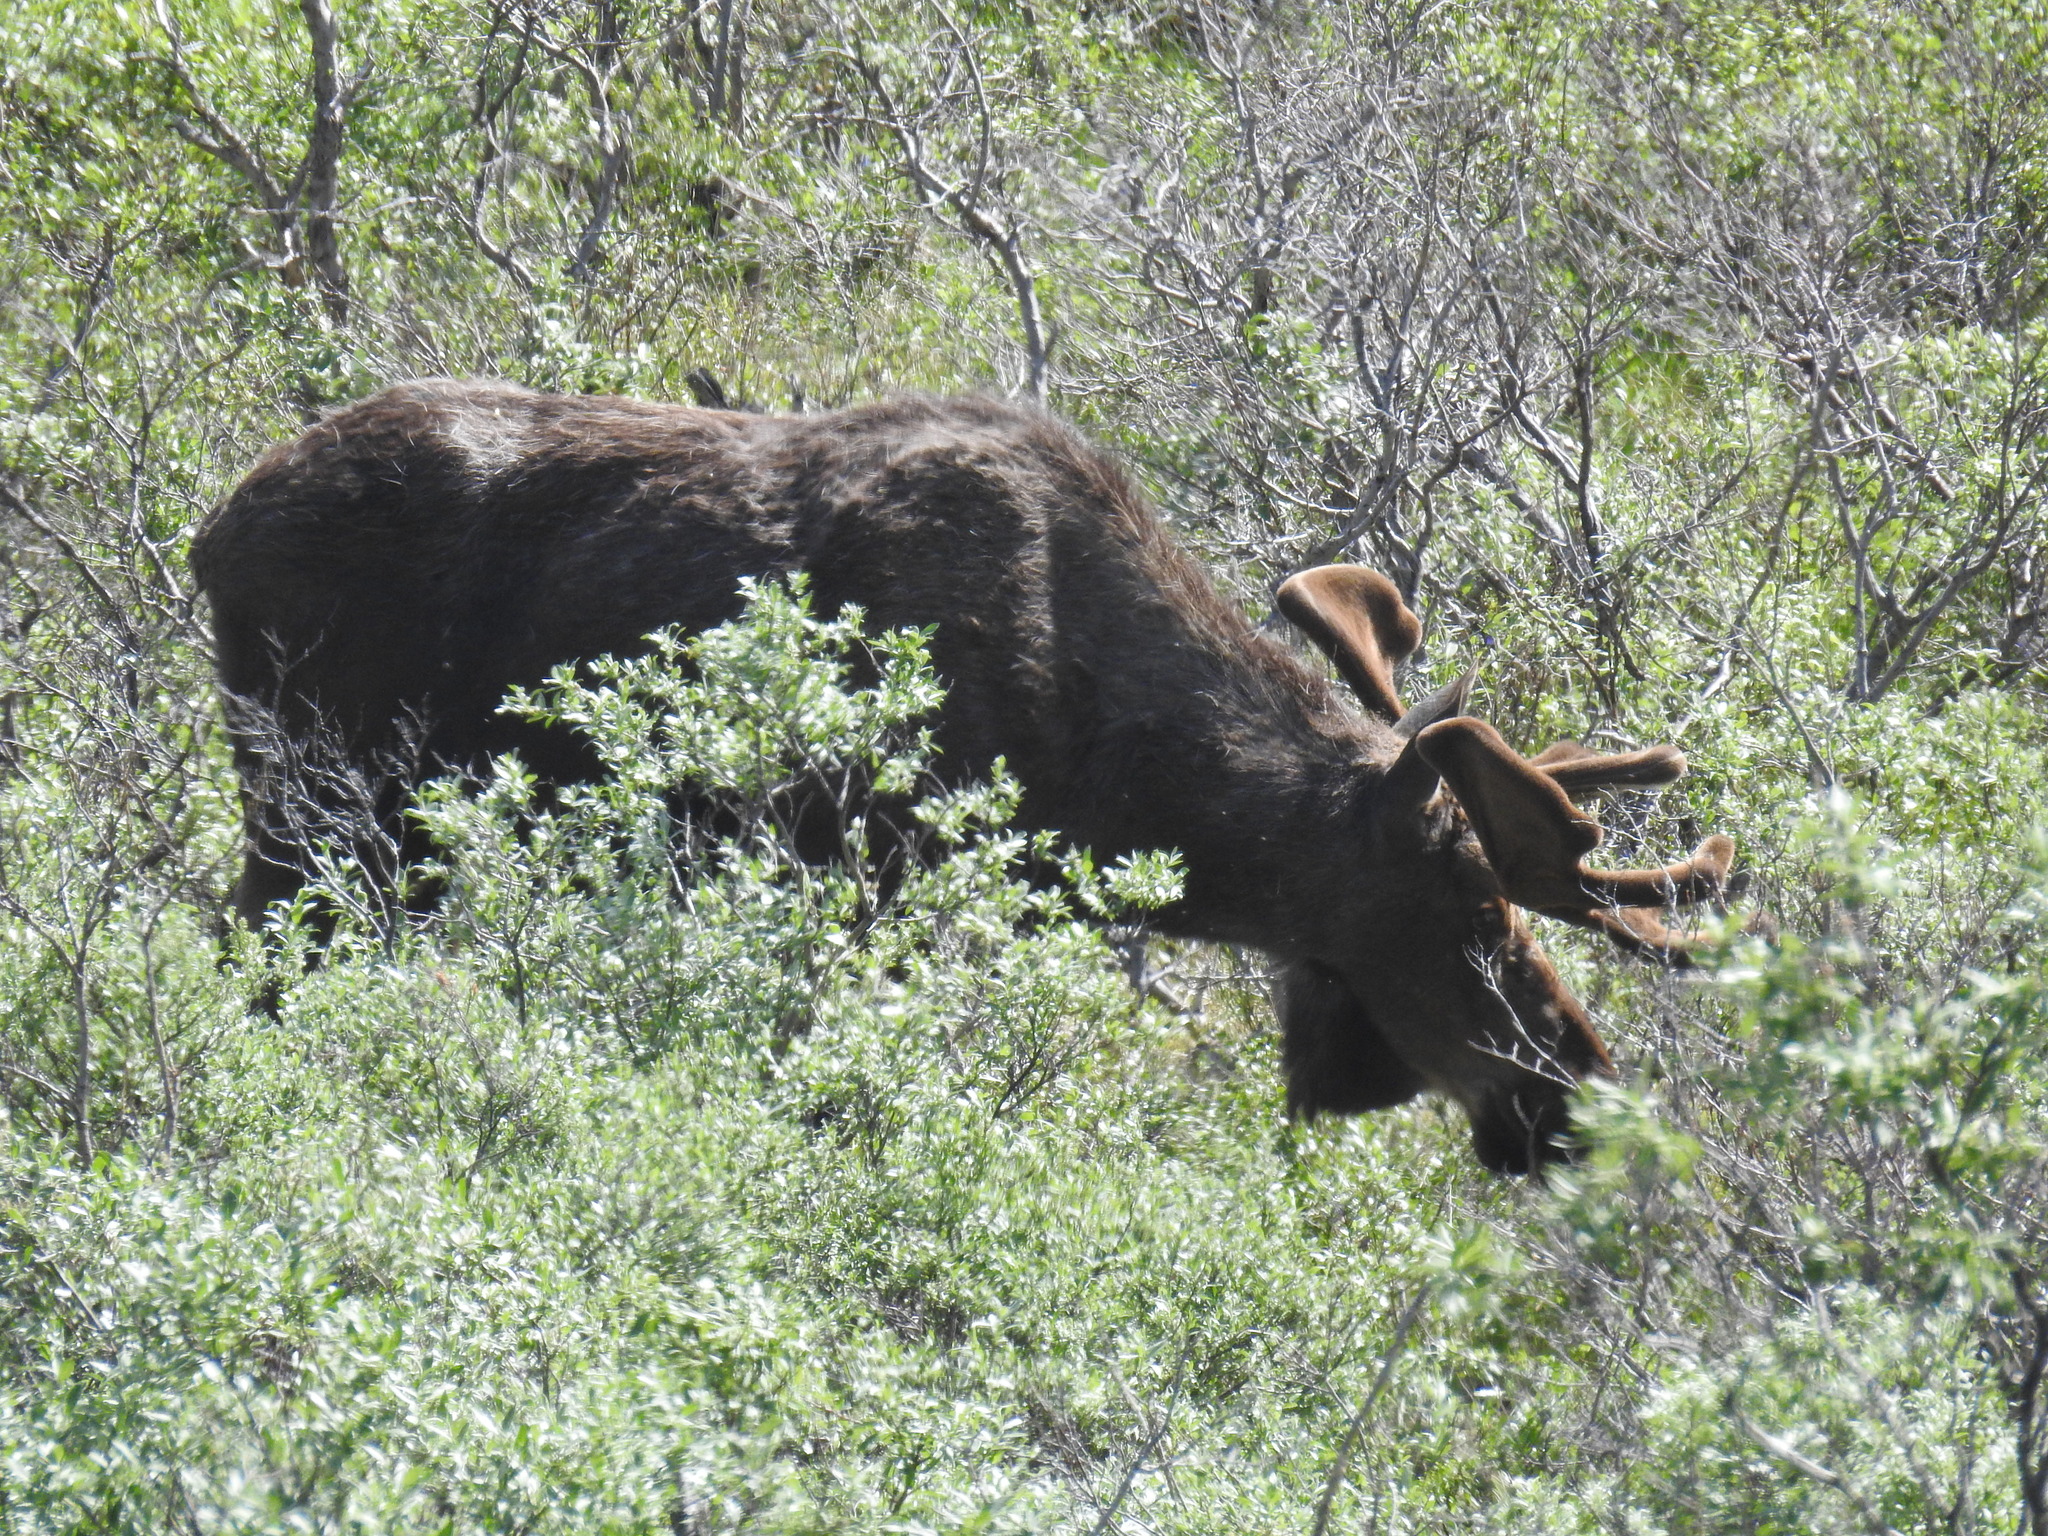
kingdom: Animalia
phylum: Chordata
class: Mammalia
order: Artiodactyla
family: Cervidae
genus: Alces
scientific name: Alces alces
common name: Moose
